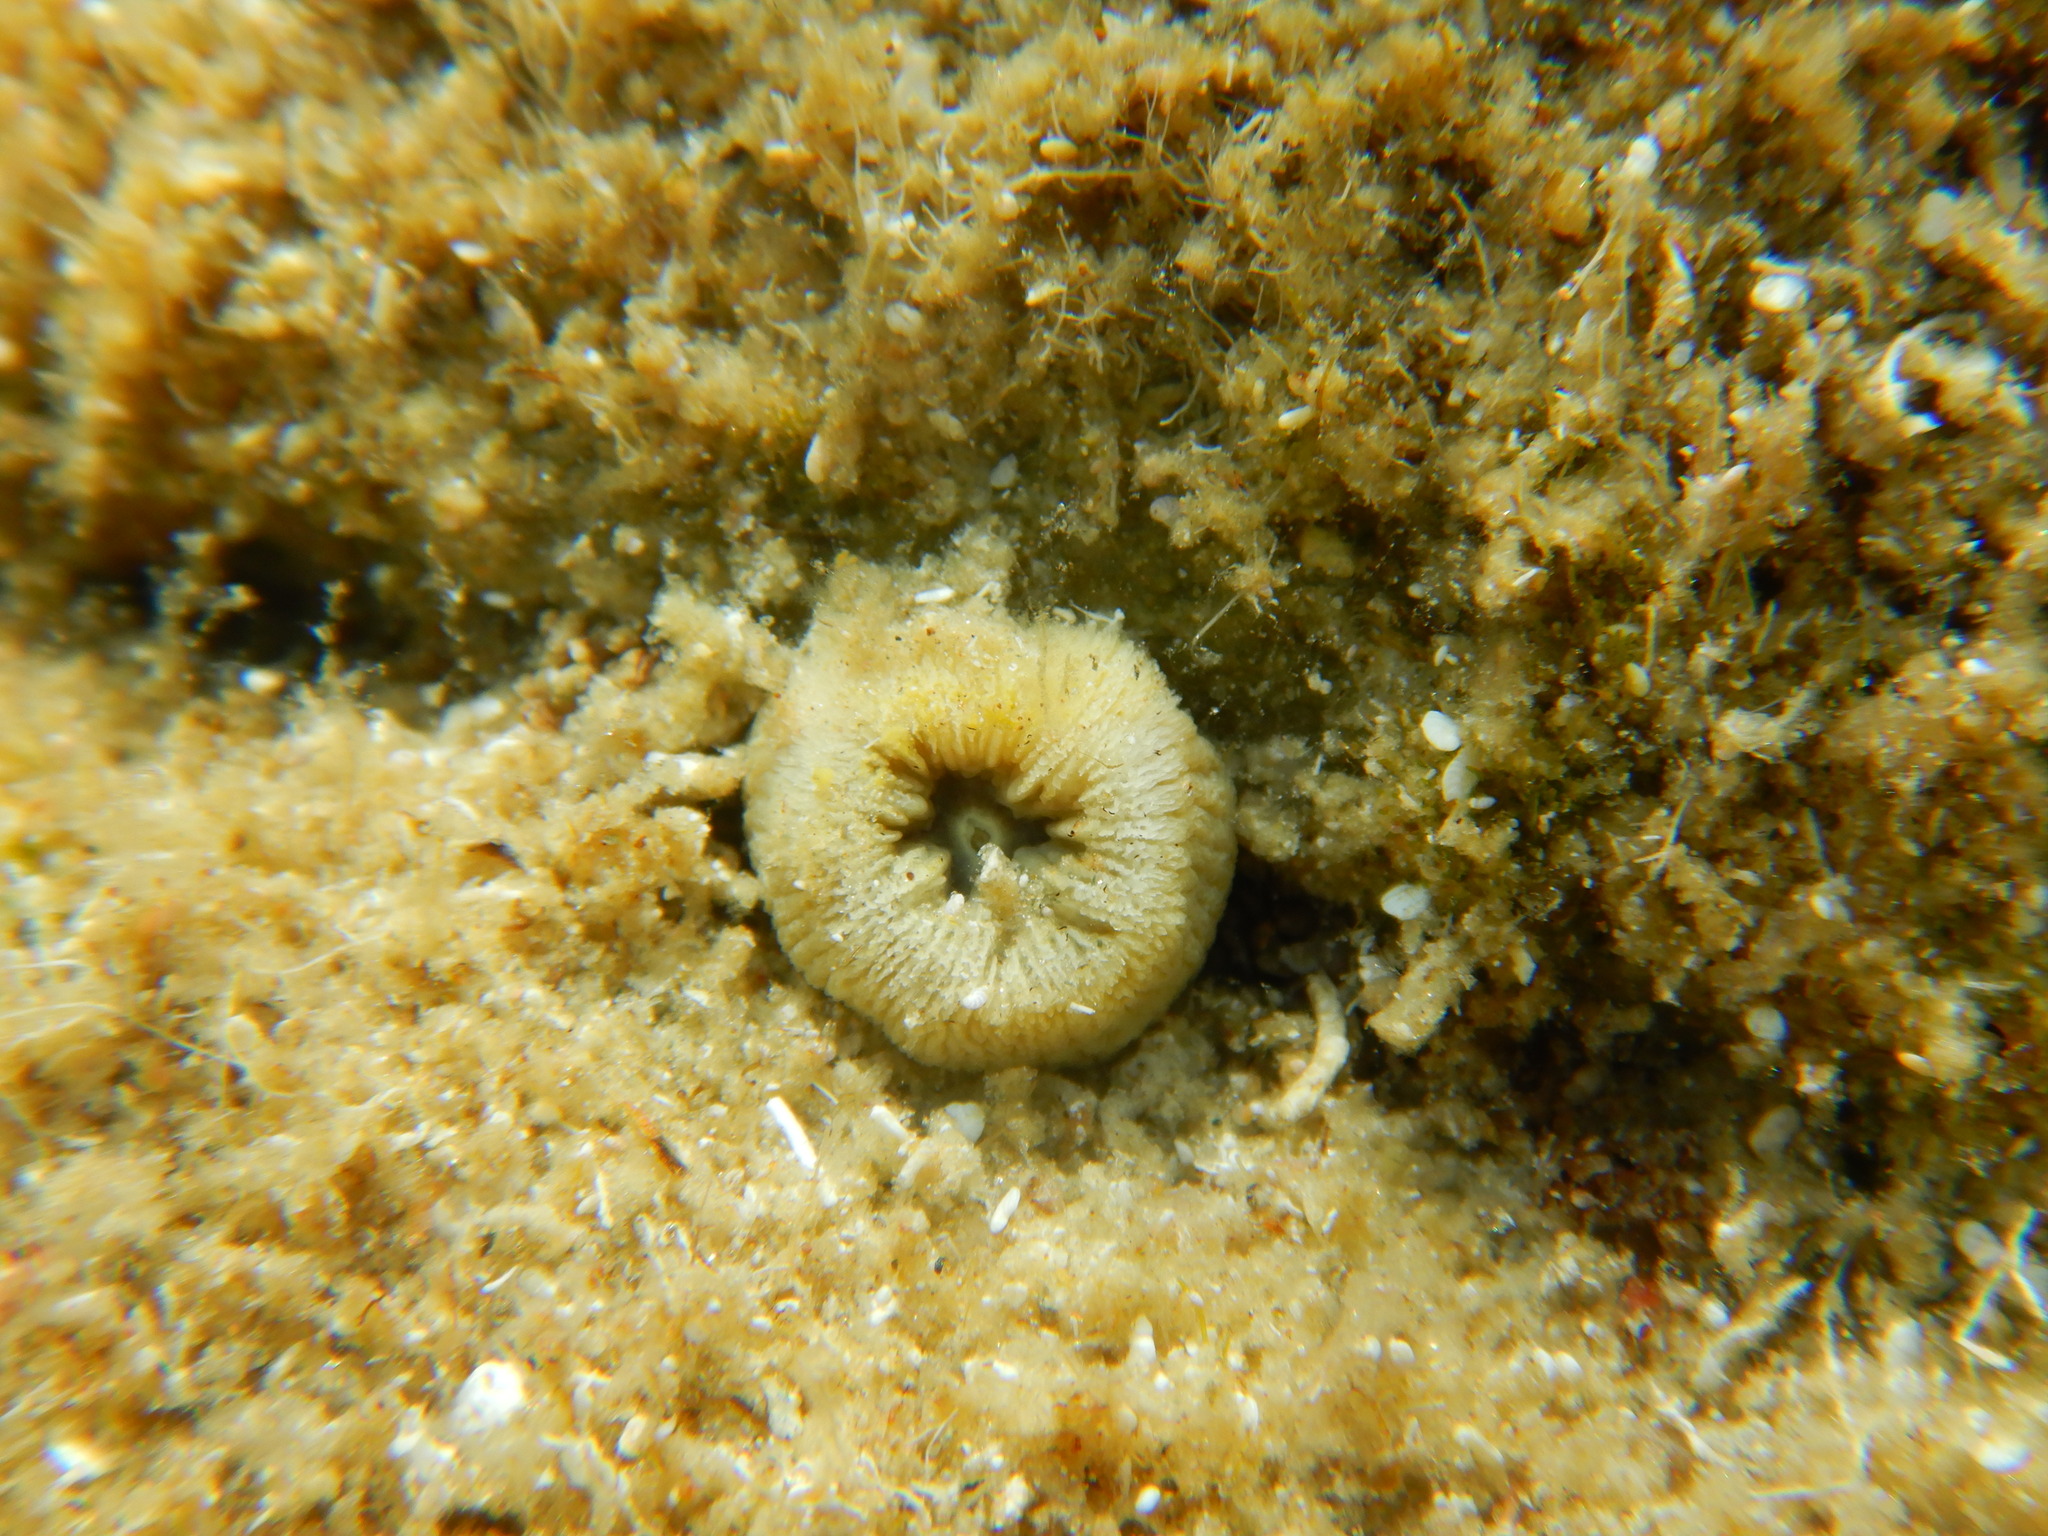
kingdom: Animalia
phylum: Cnidaria
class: Anthozoa
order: Scleractinia
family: Dendrophylliidae
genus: Balanophyllia
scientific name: Balanophyllia europaea
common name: Scarlet coral
